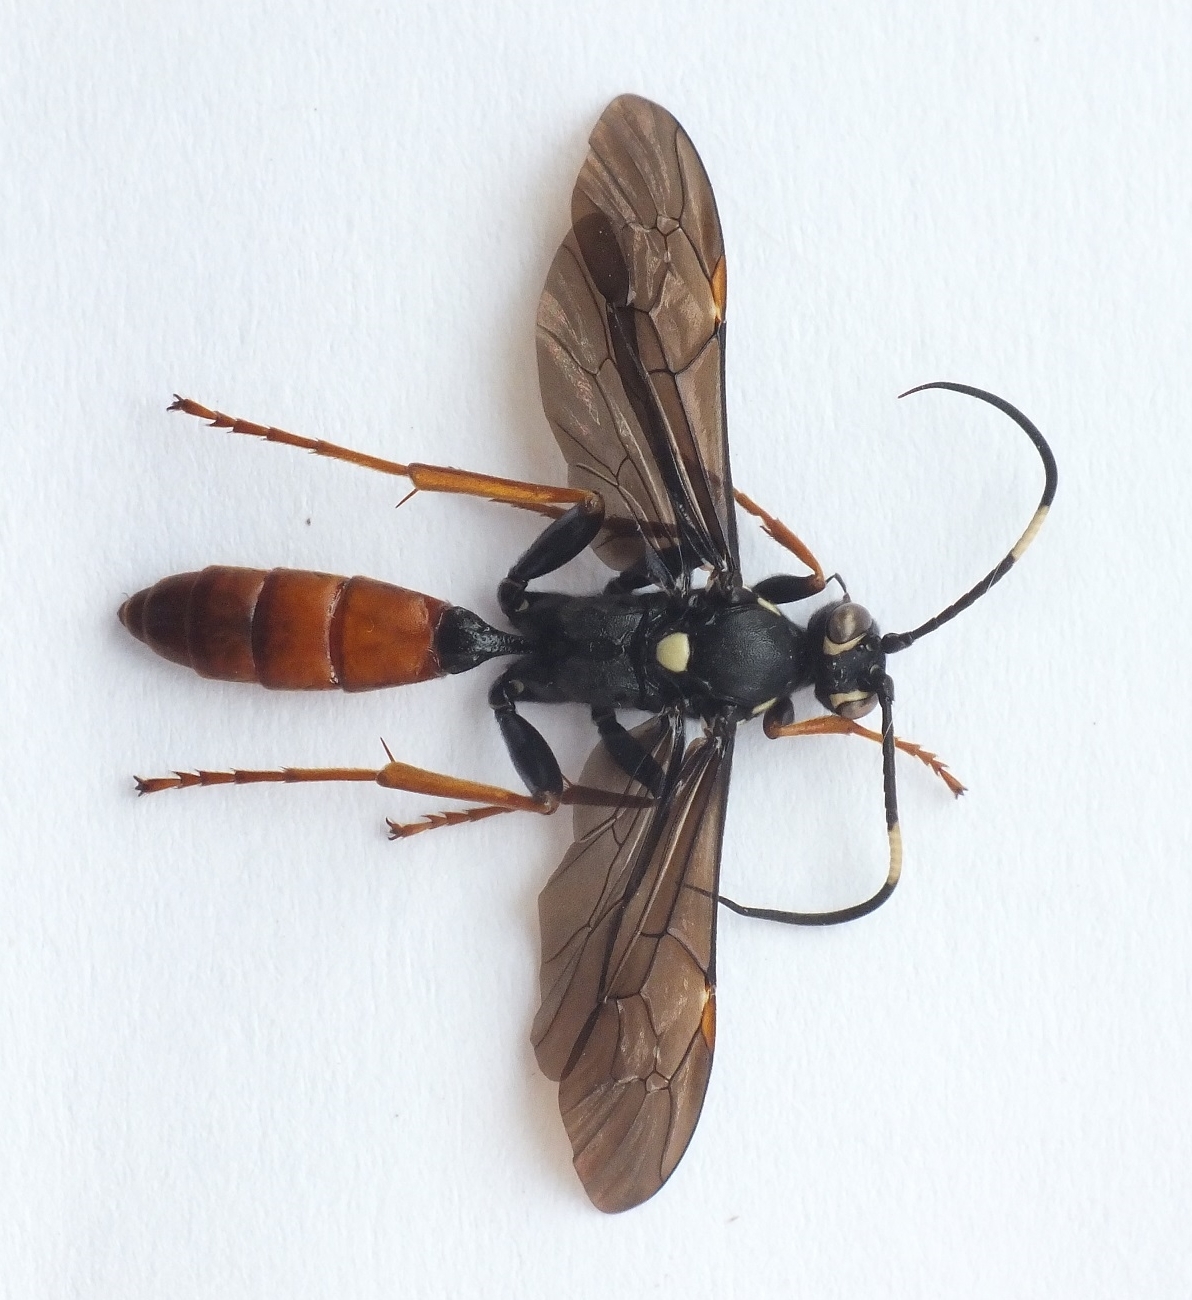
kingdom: Animalia
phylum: Arthropoda
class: Insecta
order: Hymenoptera
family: Ichneumonidae
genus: Amblyjoppa
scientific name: Amblyjoppa fuscipennis
